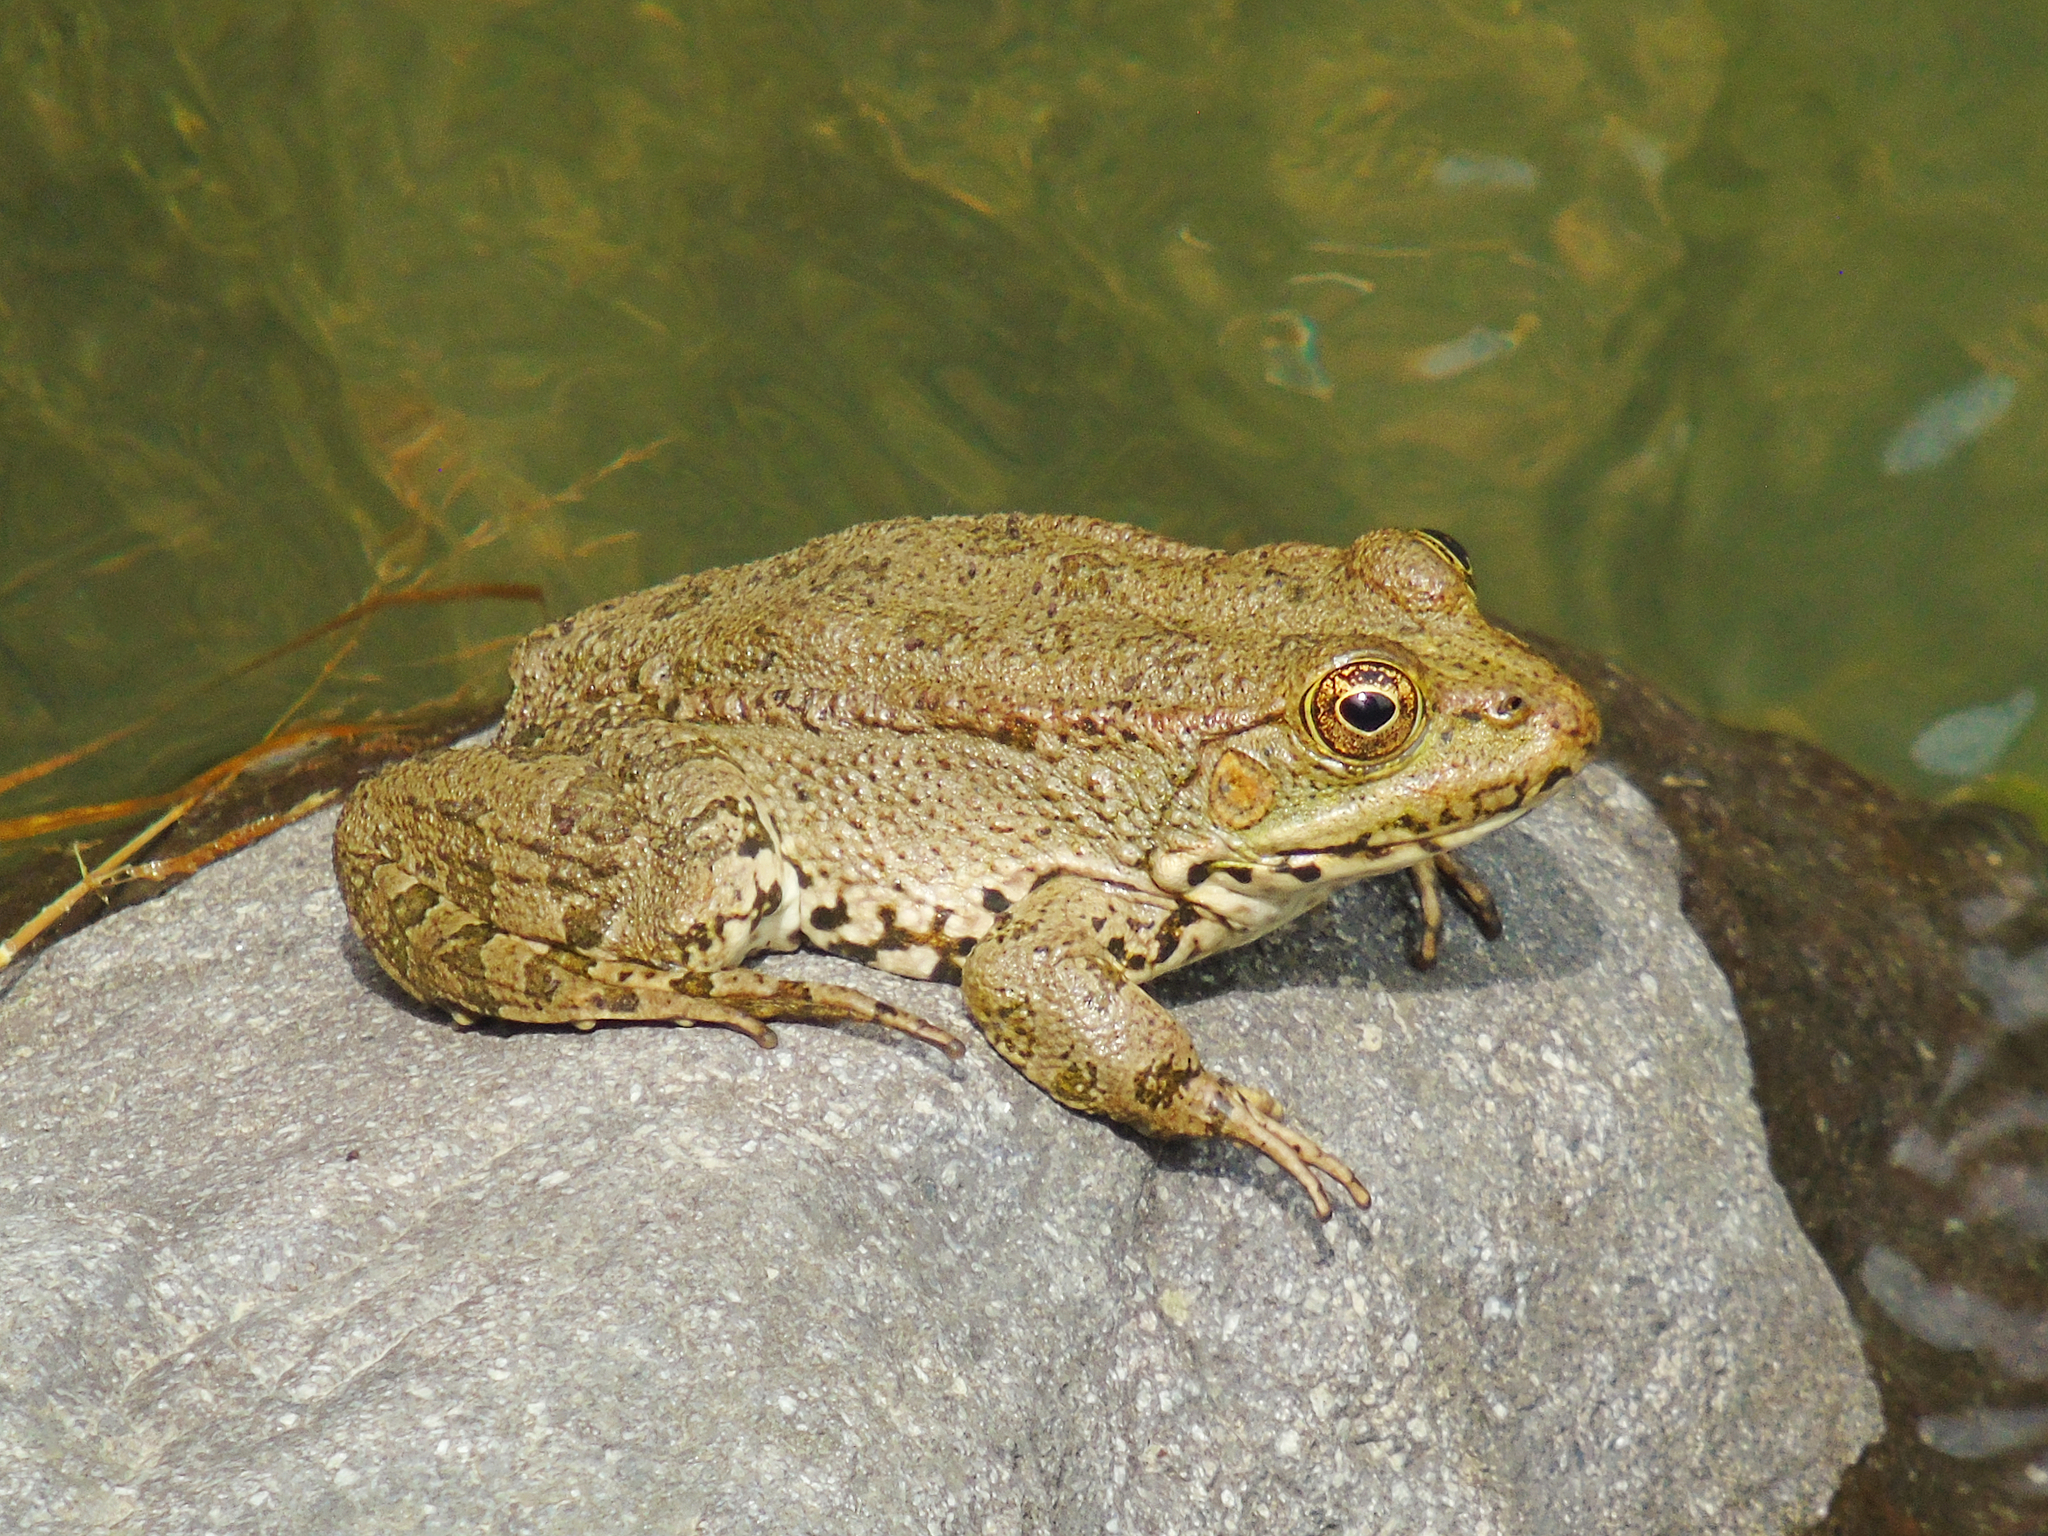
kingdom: Animalia
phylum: Chordata
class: Amphibia
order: Anura
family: Ranidae
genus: Pelophylax
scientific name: Pelophylax ridibundus
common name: Marsh frog
